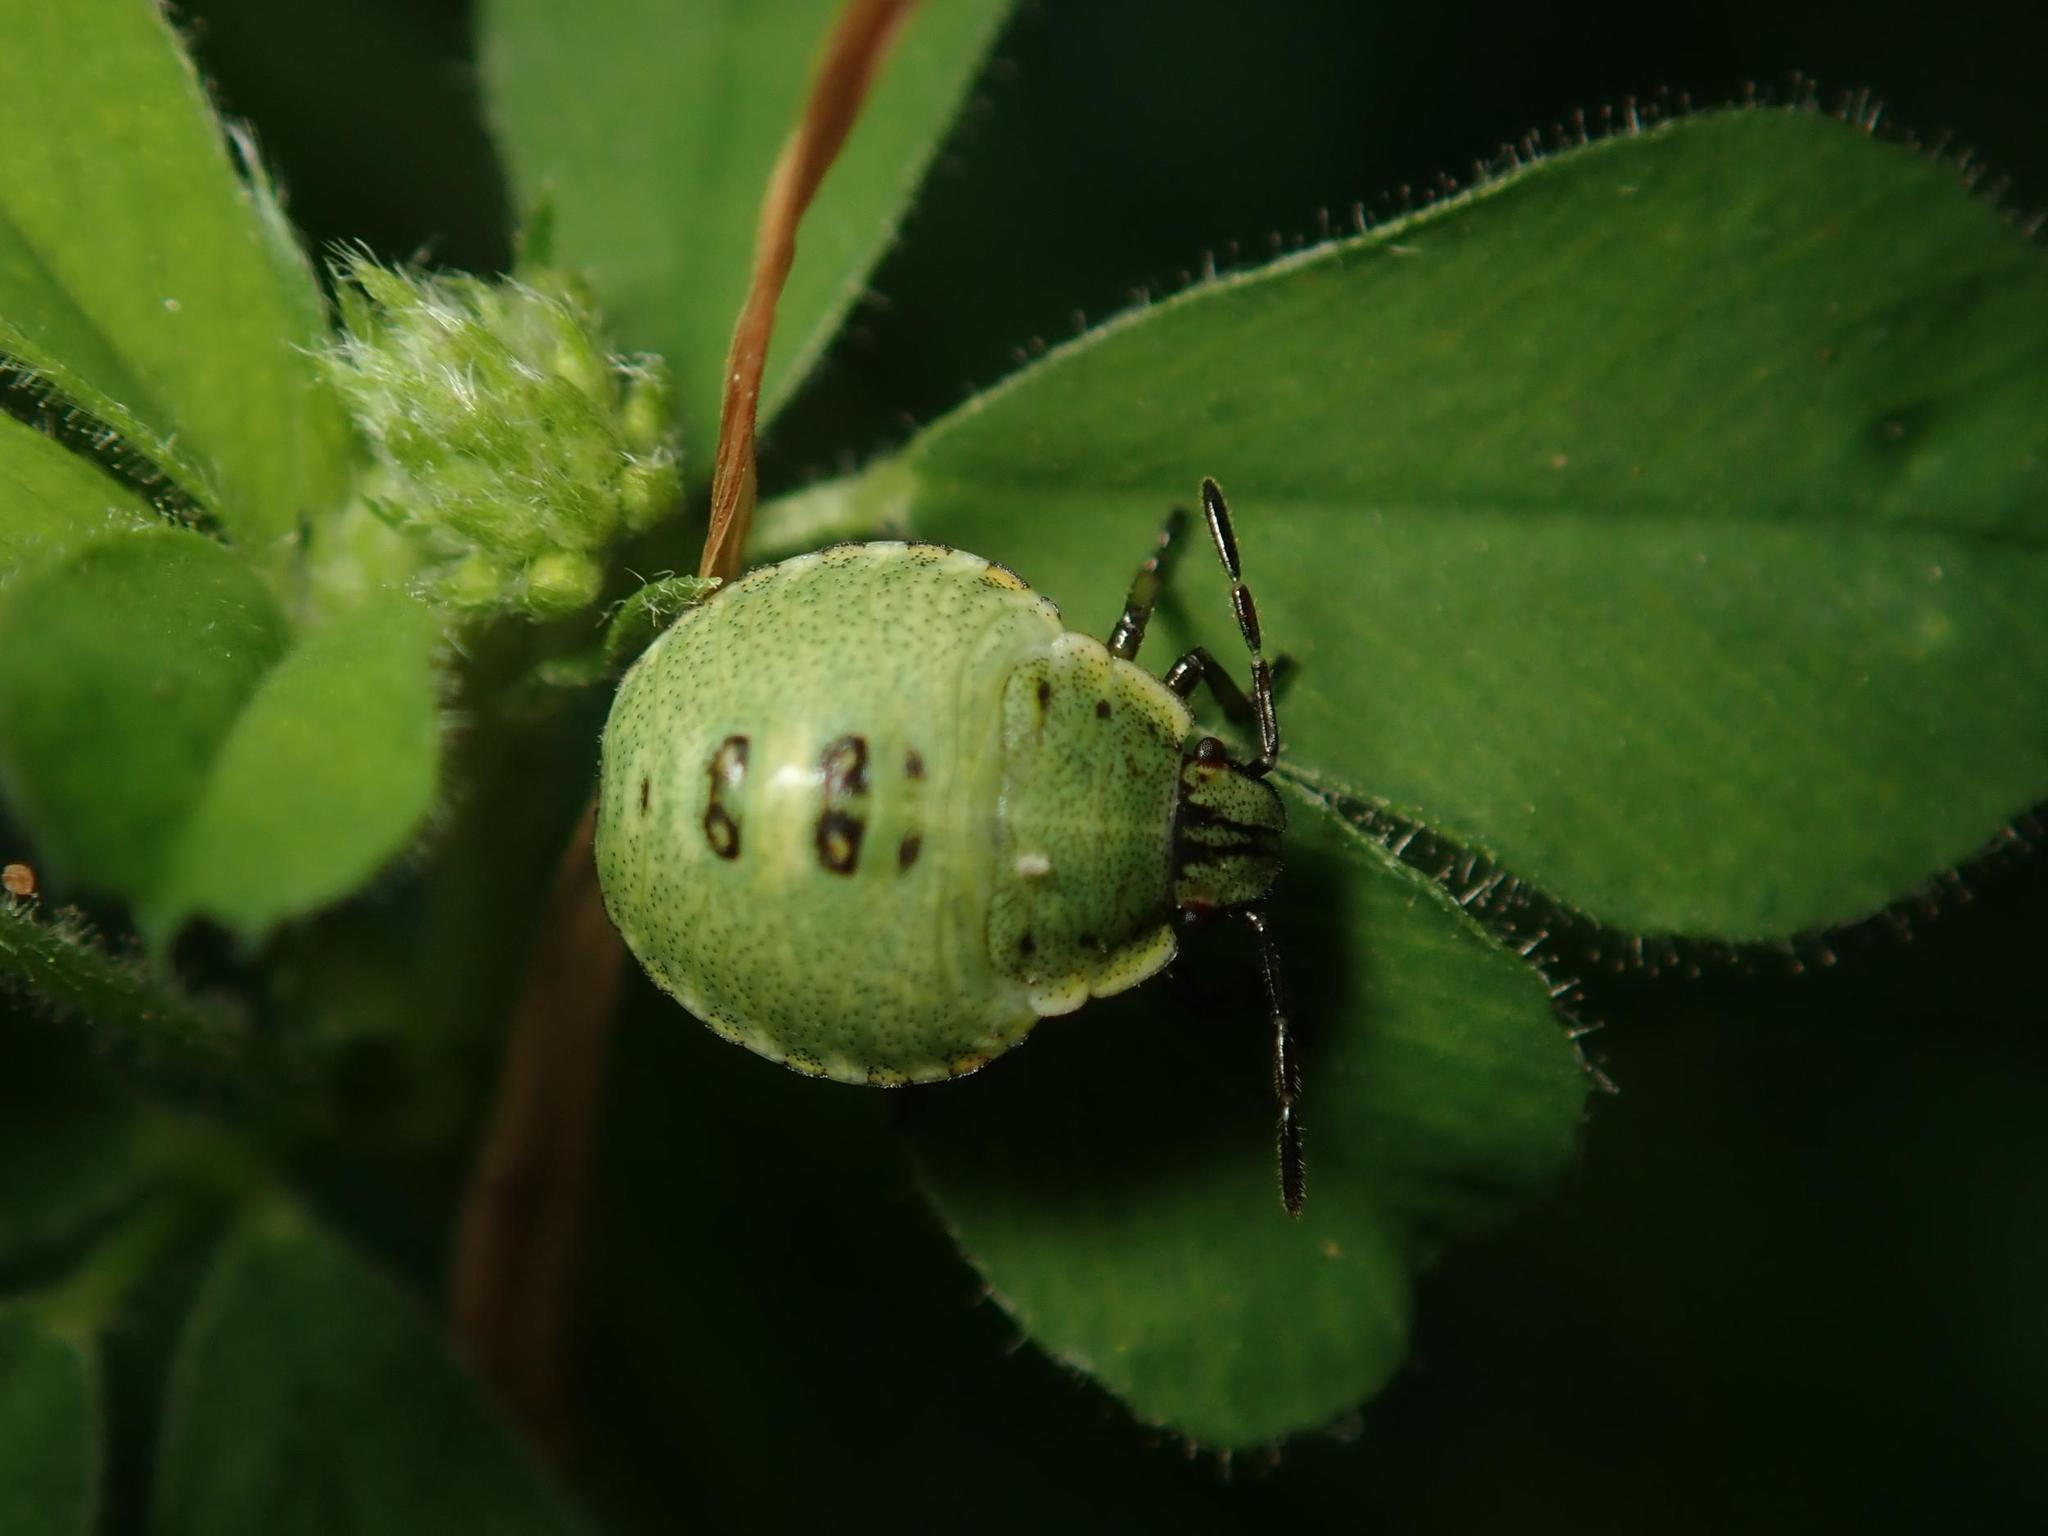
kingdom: Animalia
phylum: Arthropoda
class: Insecta
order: Hemiptera
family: Pentatomidae
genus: Palomena
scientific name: Palomena prasina
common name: Green shieldbug
